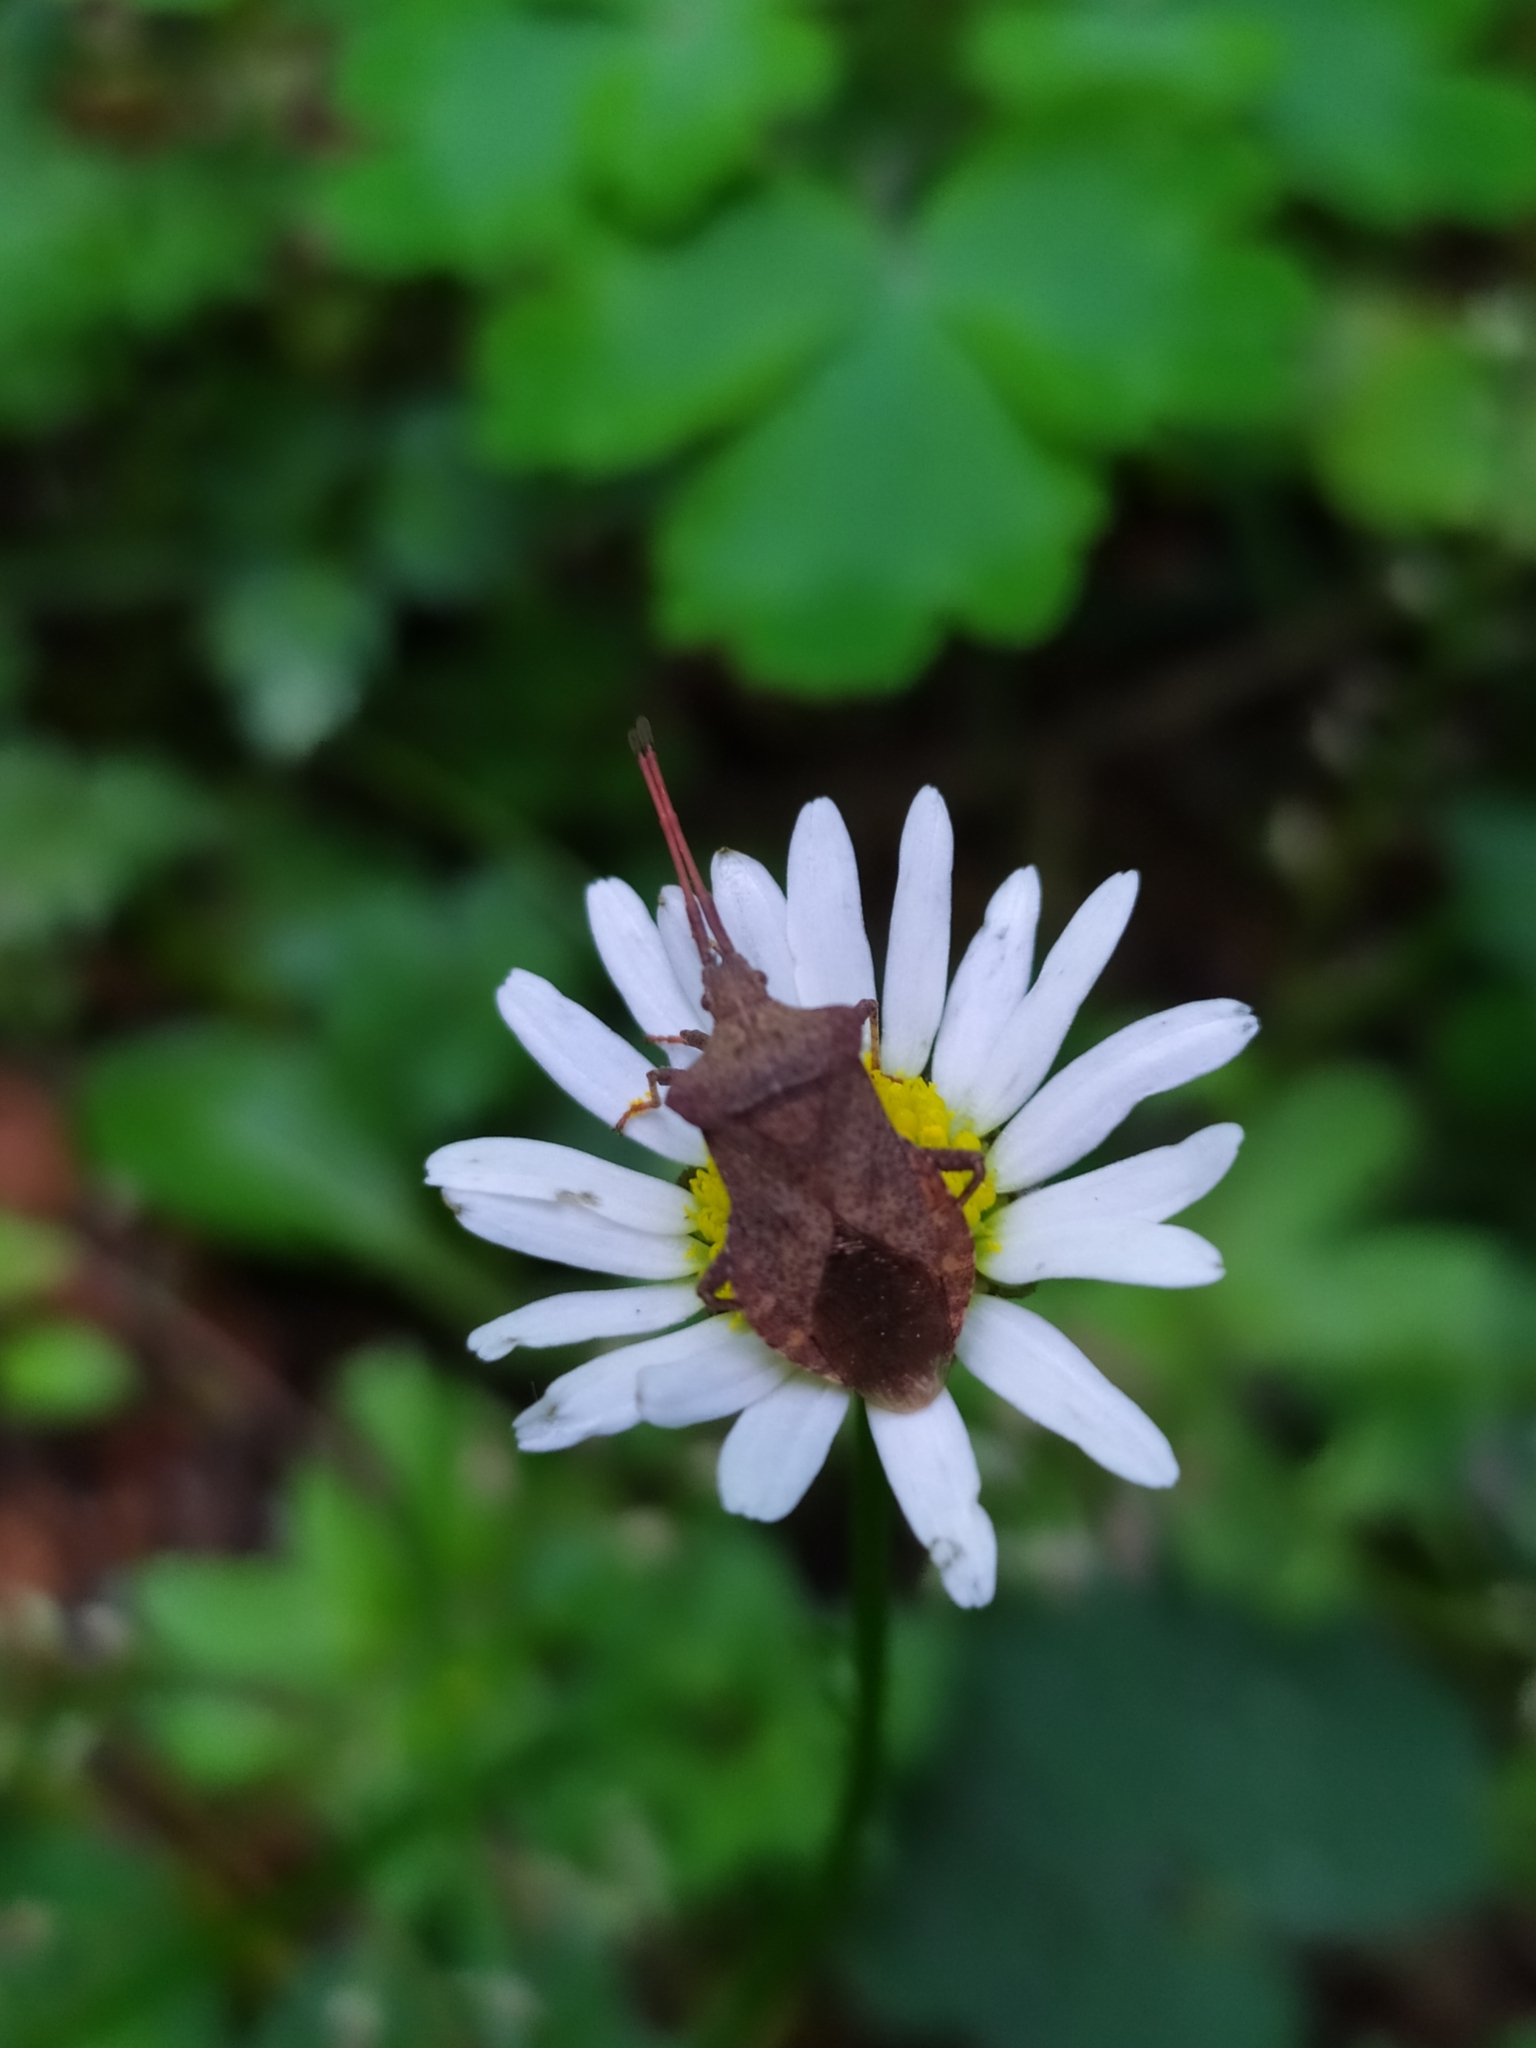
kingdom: Animalia
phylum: Arthropoda
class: Insecta
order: Hemiptera
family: Coreidae
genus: Coreus
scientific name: Coreus marginatus
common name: Dock bug
